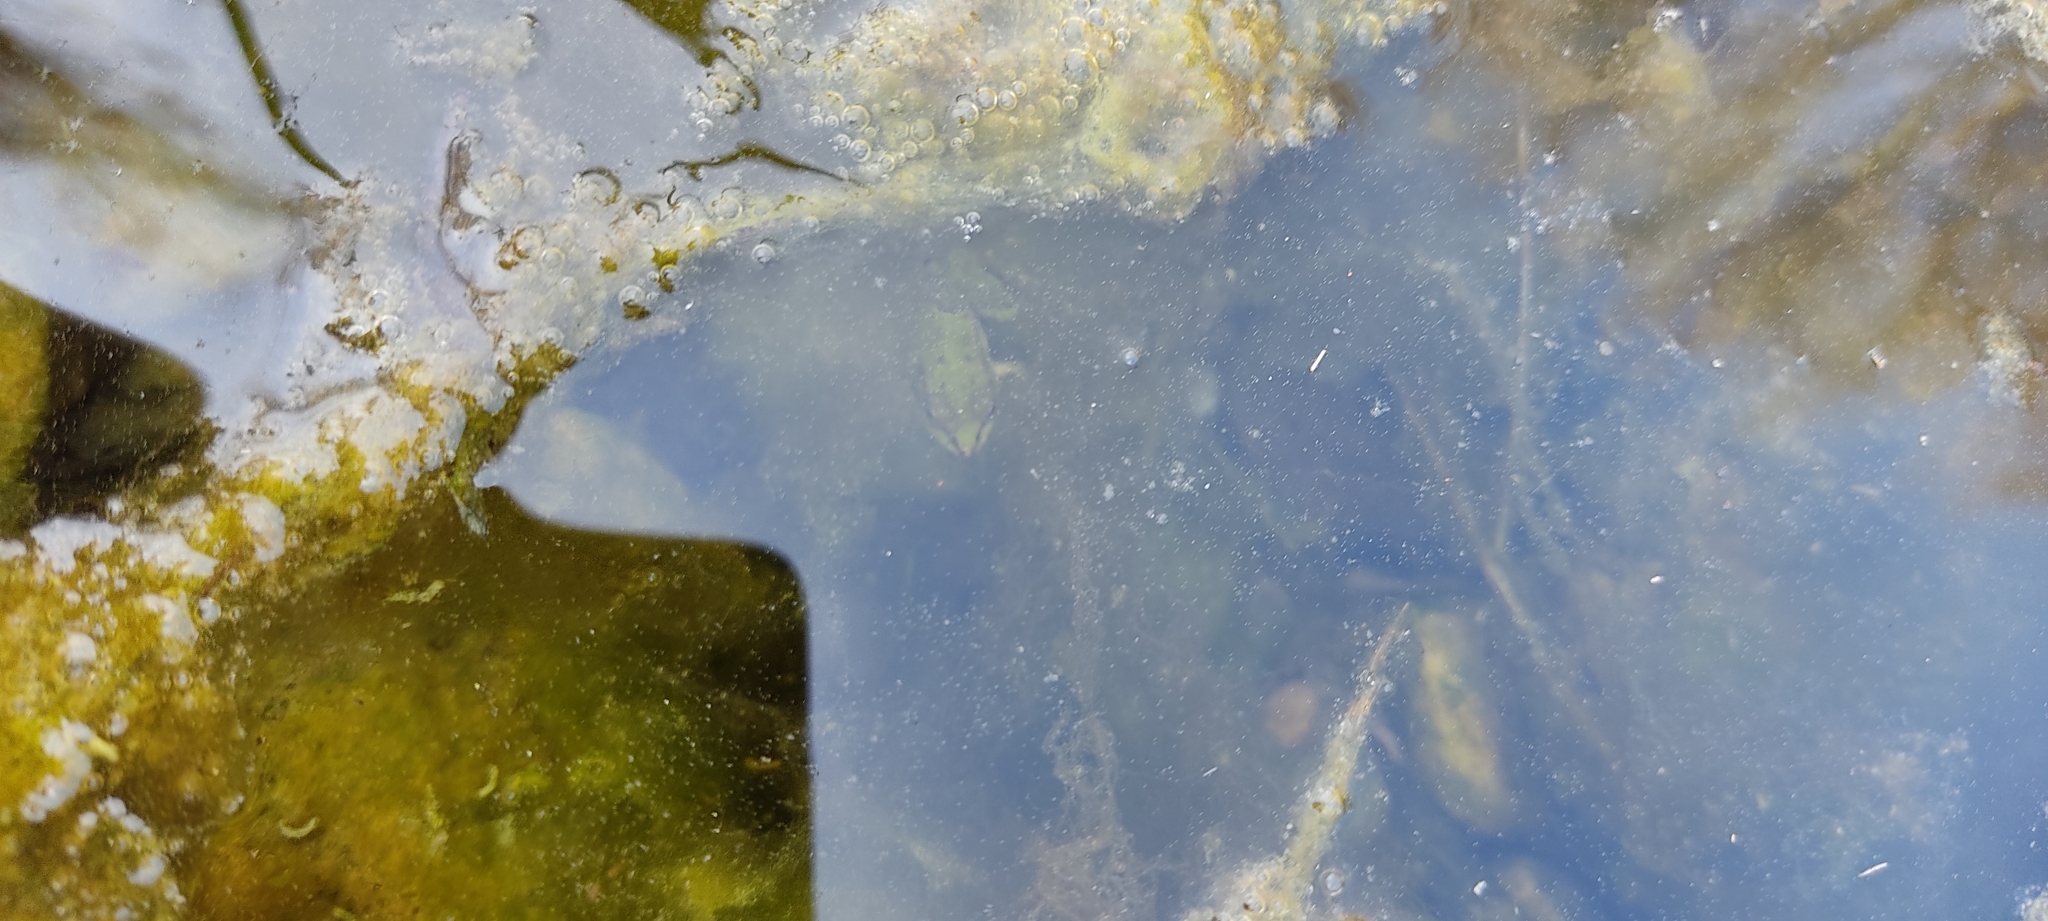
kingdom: Animalia
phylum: Chordata
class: Amphibia
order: Anura
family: Ranidae
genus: Pelophylax
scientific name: Pelophylax
